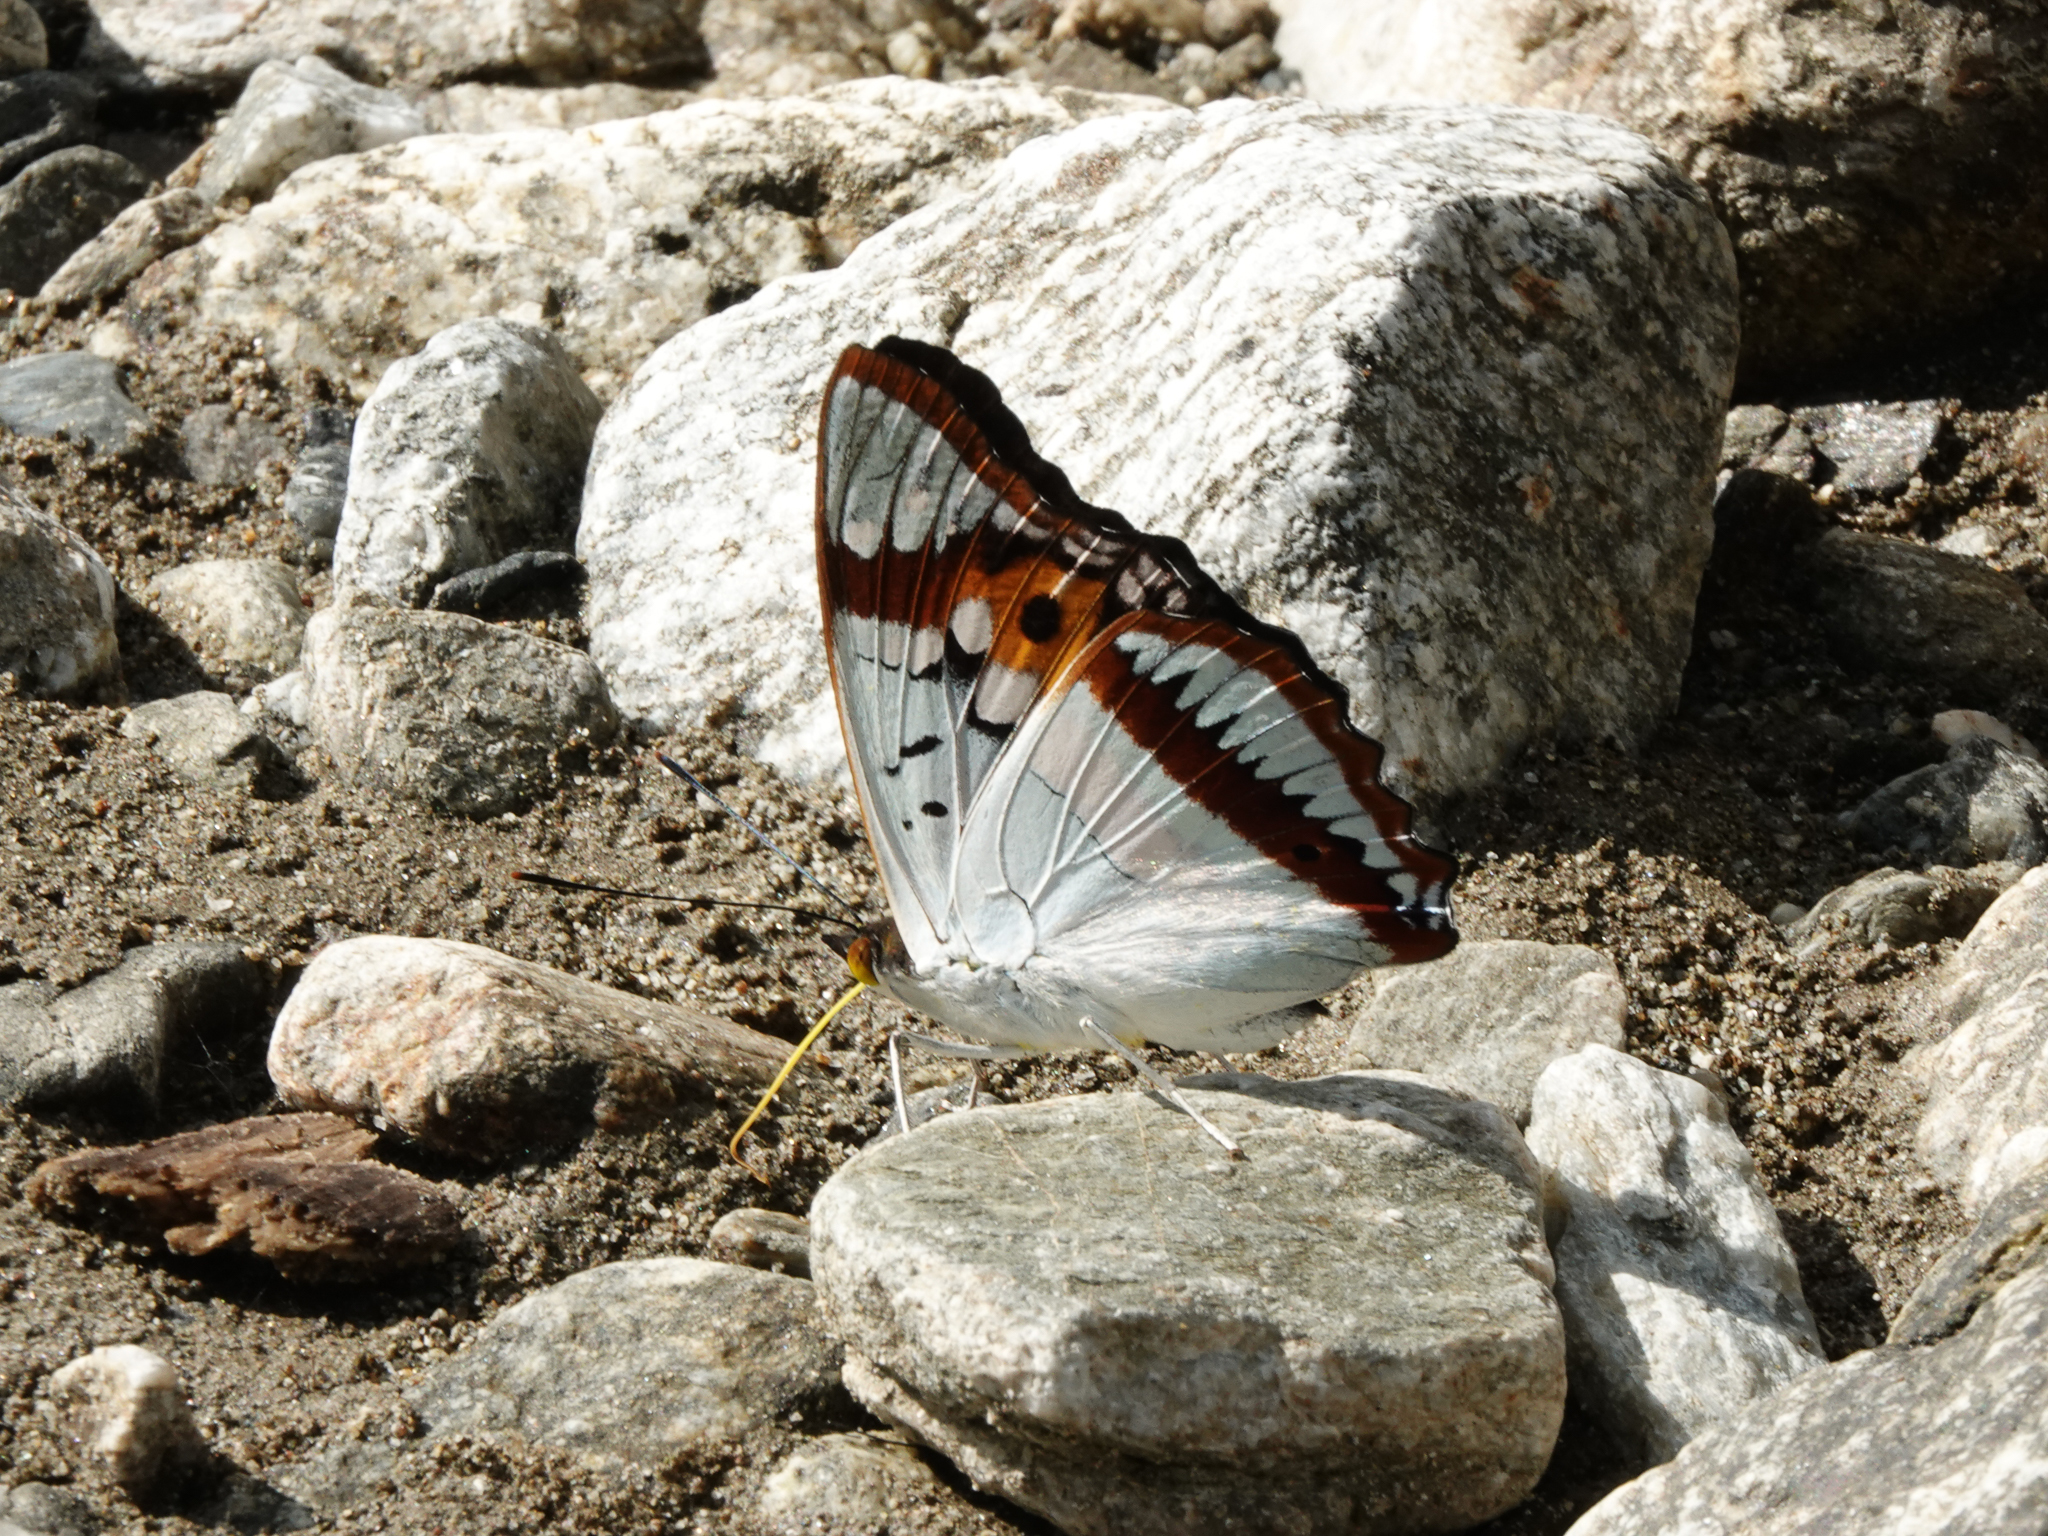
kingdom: Animalia
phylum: Arthropoda
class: Insecta
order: Lepidoptera
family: Nymphalidae
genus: Apatura
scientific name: Apatura Mimathyma ambica
